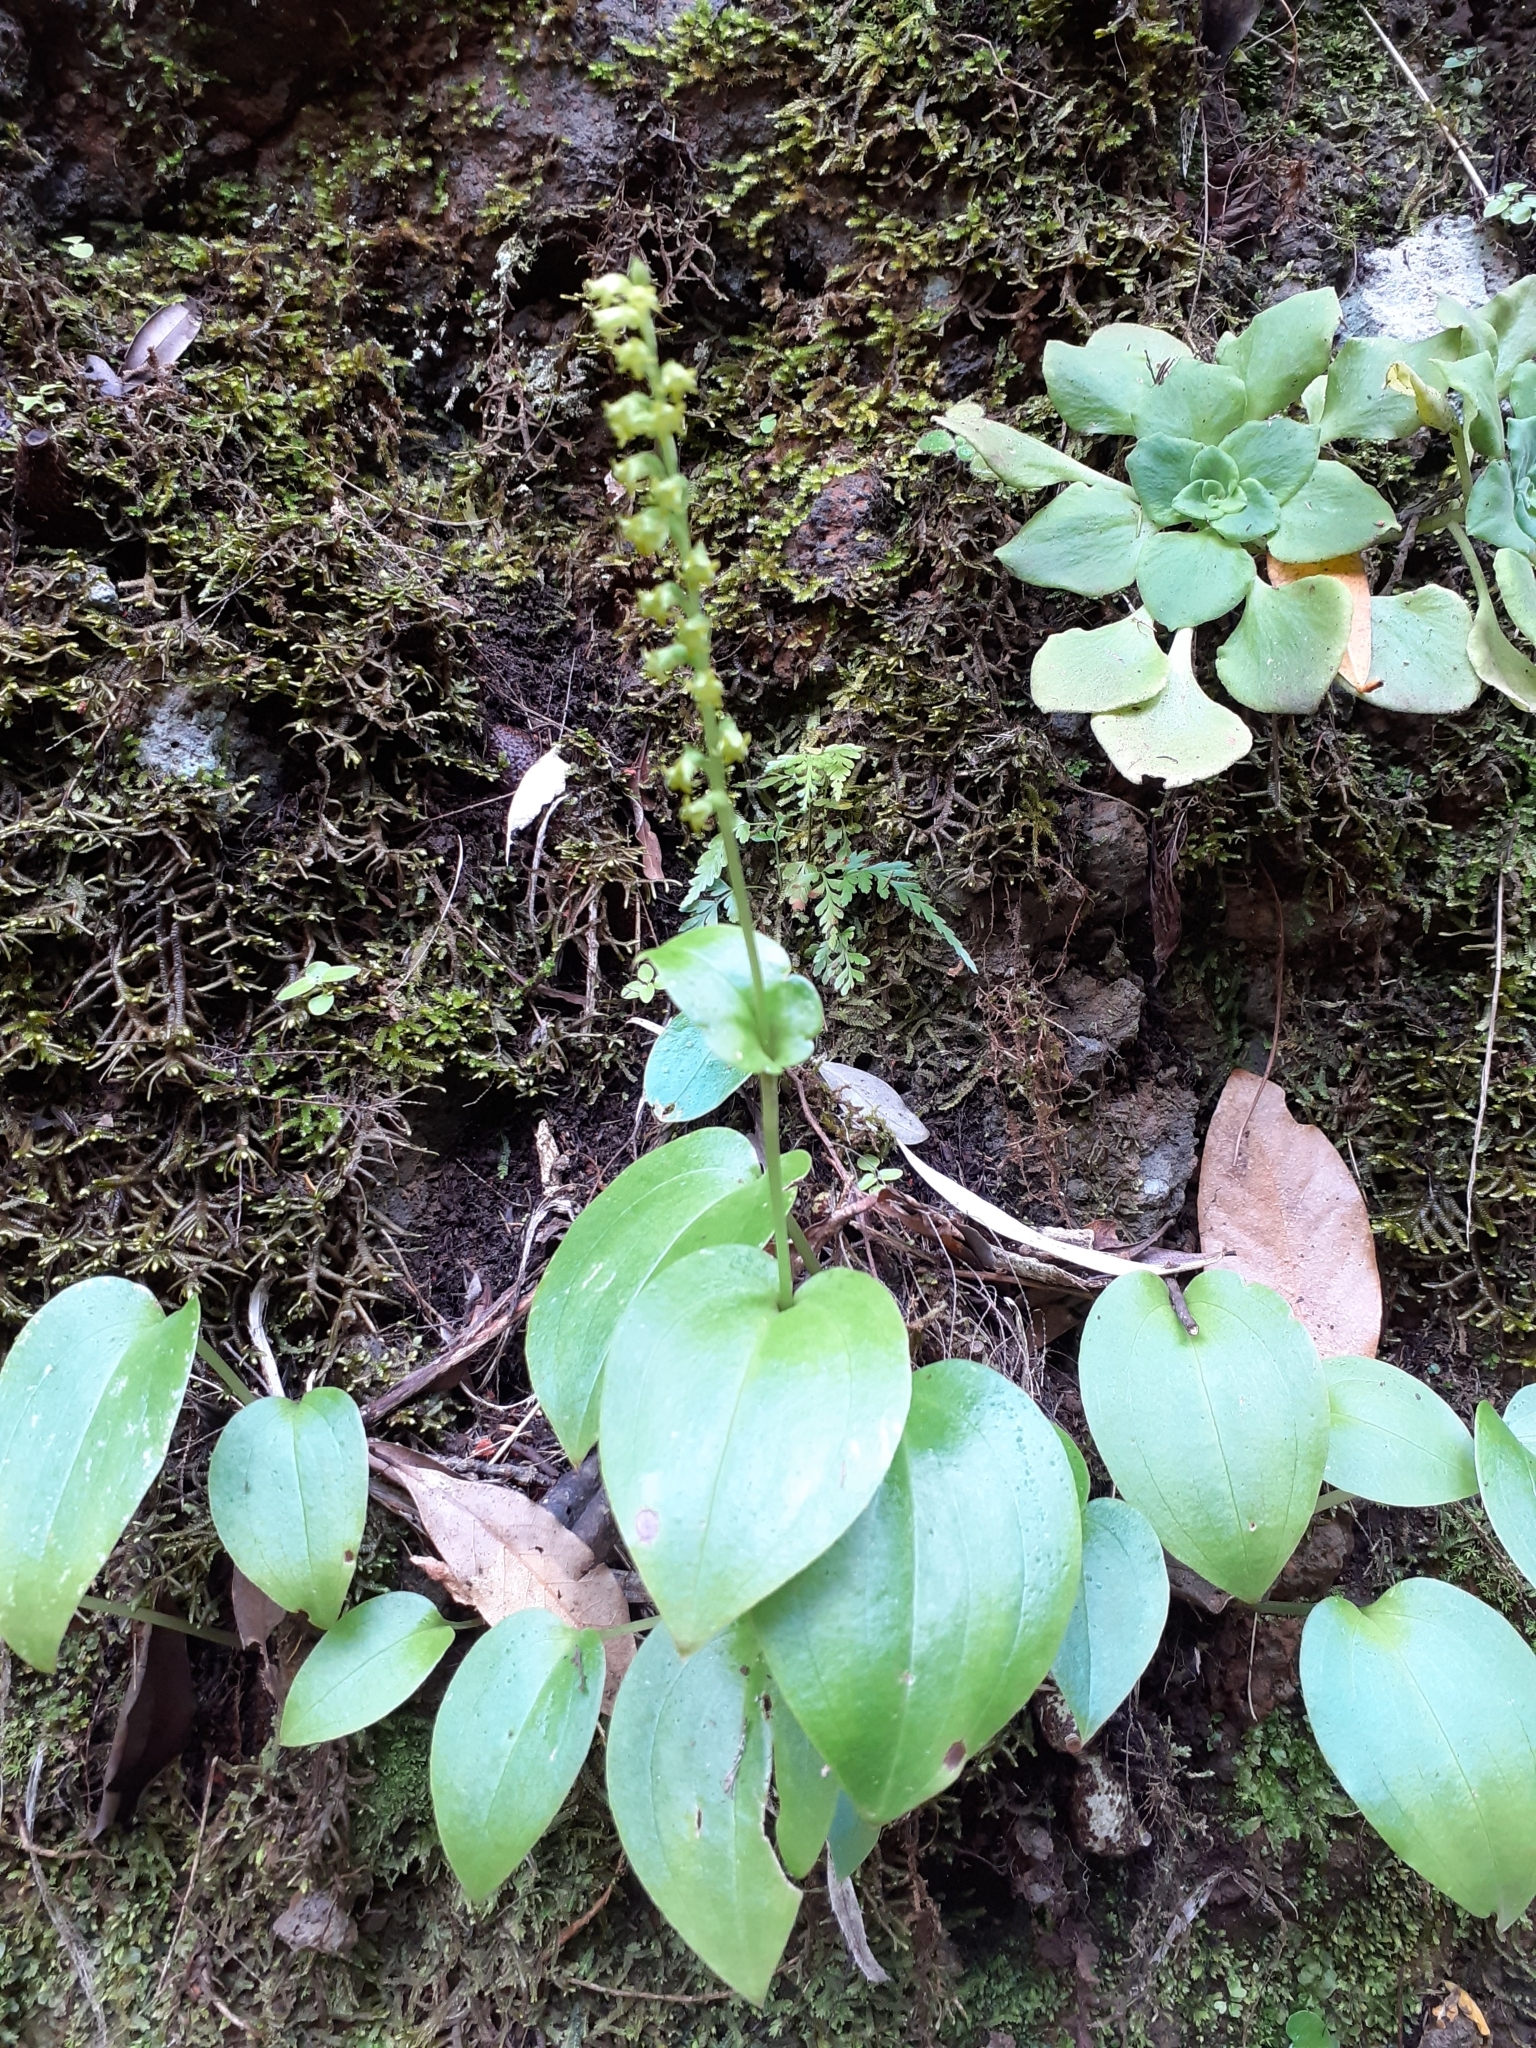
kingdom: Plantae
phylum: Tracheophyta
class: Liliopsida
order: Asparagales
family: Orchidaceae
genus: Gennaria
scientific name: Gennaria diphylla
